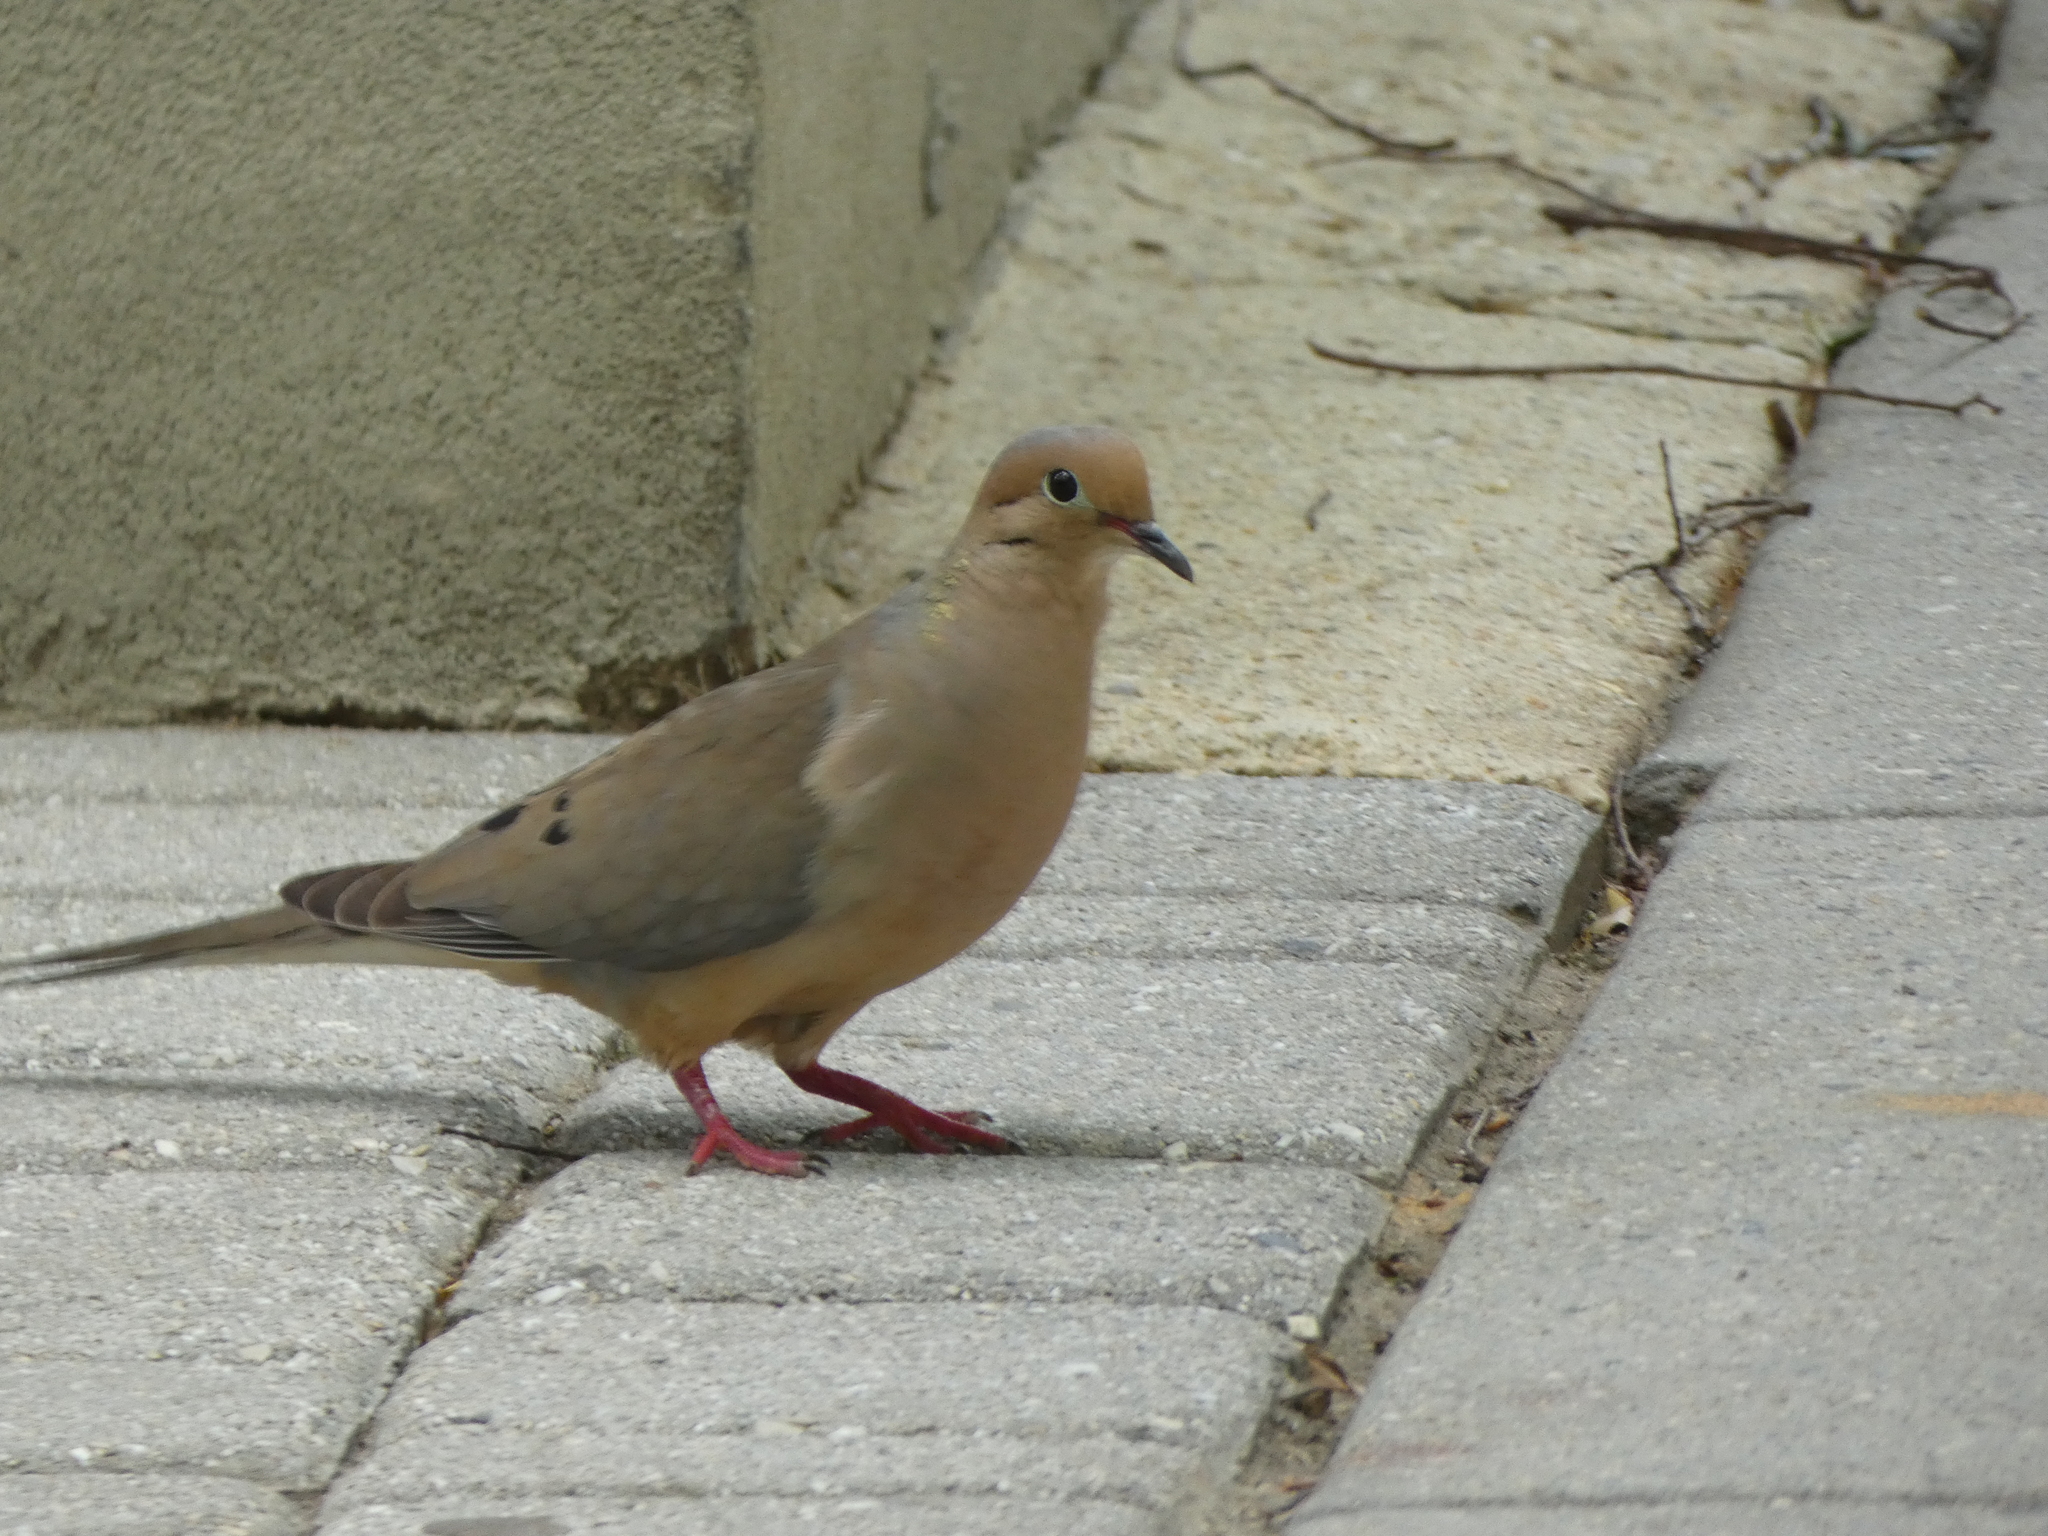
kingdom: Animalia
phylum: Chordata
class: Aves
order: Columbiformes
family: Columbidae
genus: Zenaida
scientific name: Zenaida macroura
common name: Mourning dove
